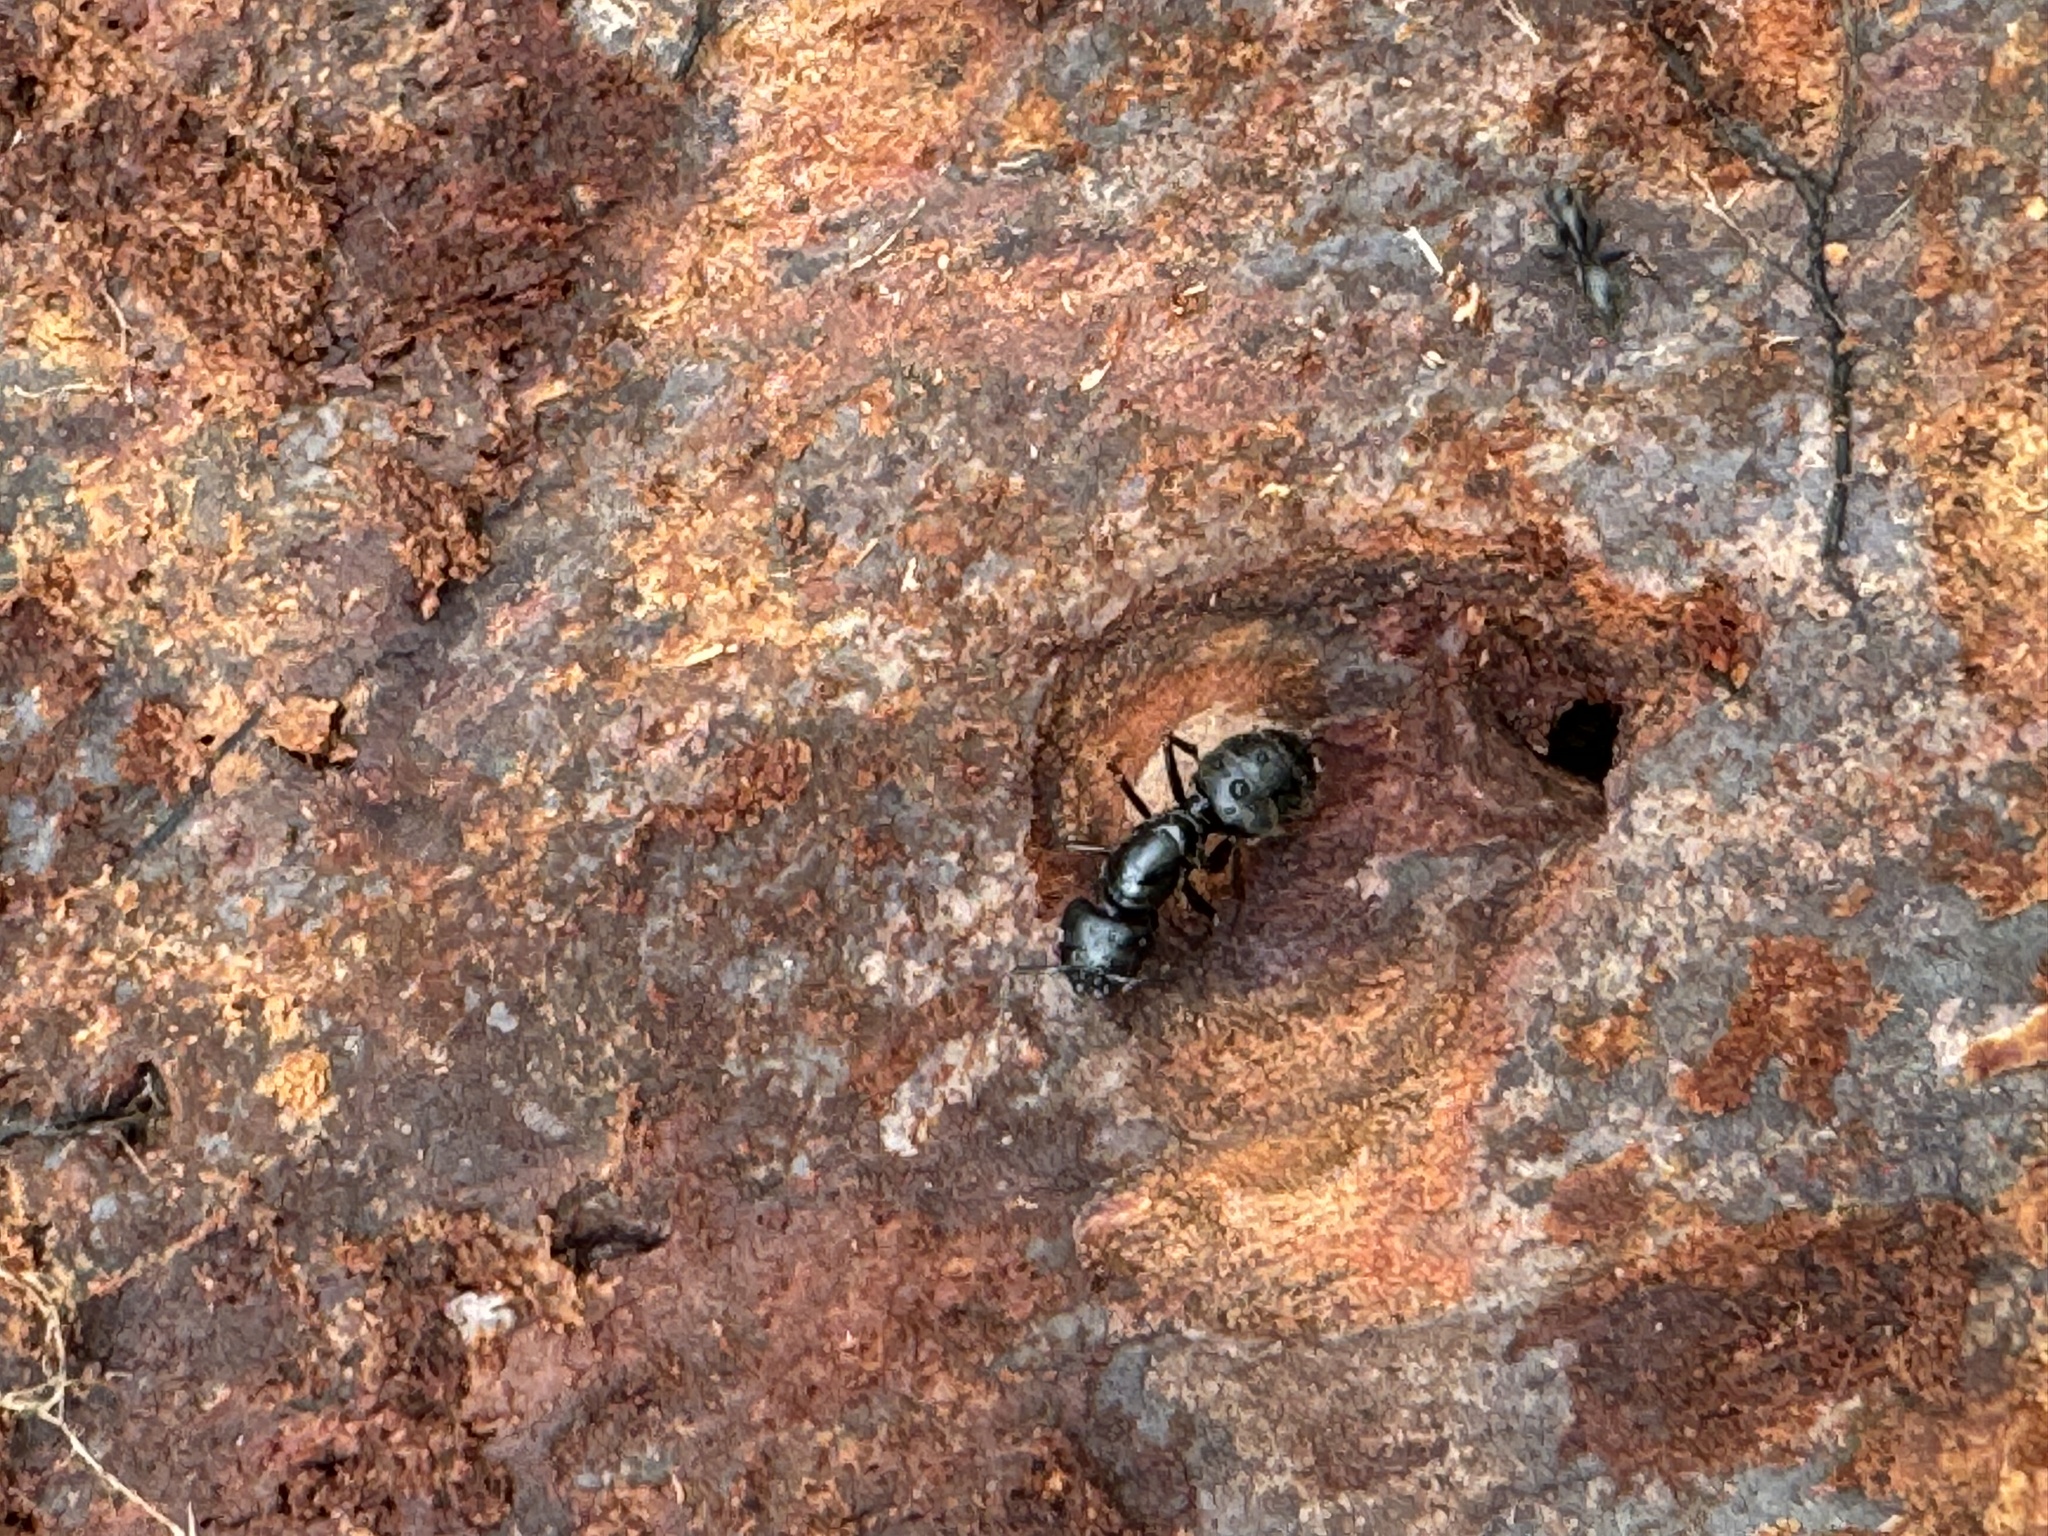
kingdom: Animalia
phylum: Arthropoda
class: Insecta
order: Hymenoptera
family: Formicidae
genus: Camponotus
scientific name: Camponotus pennsylvanicus
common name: Black carpenter ant
